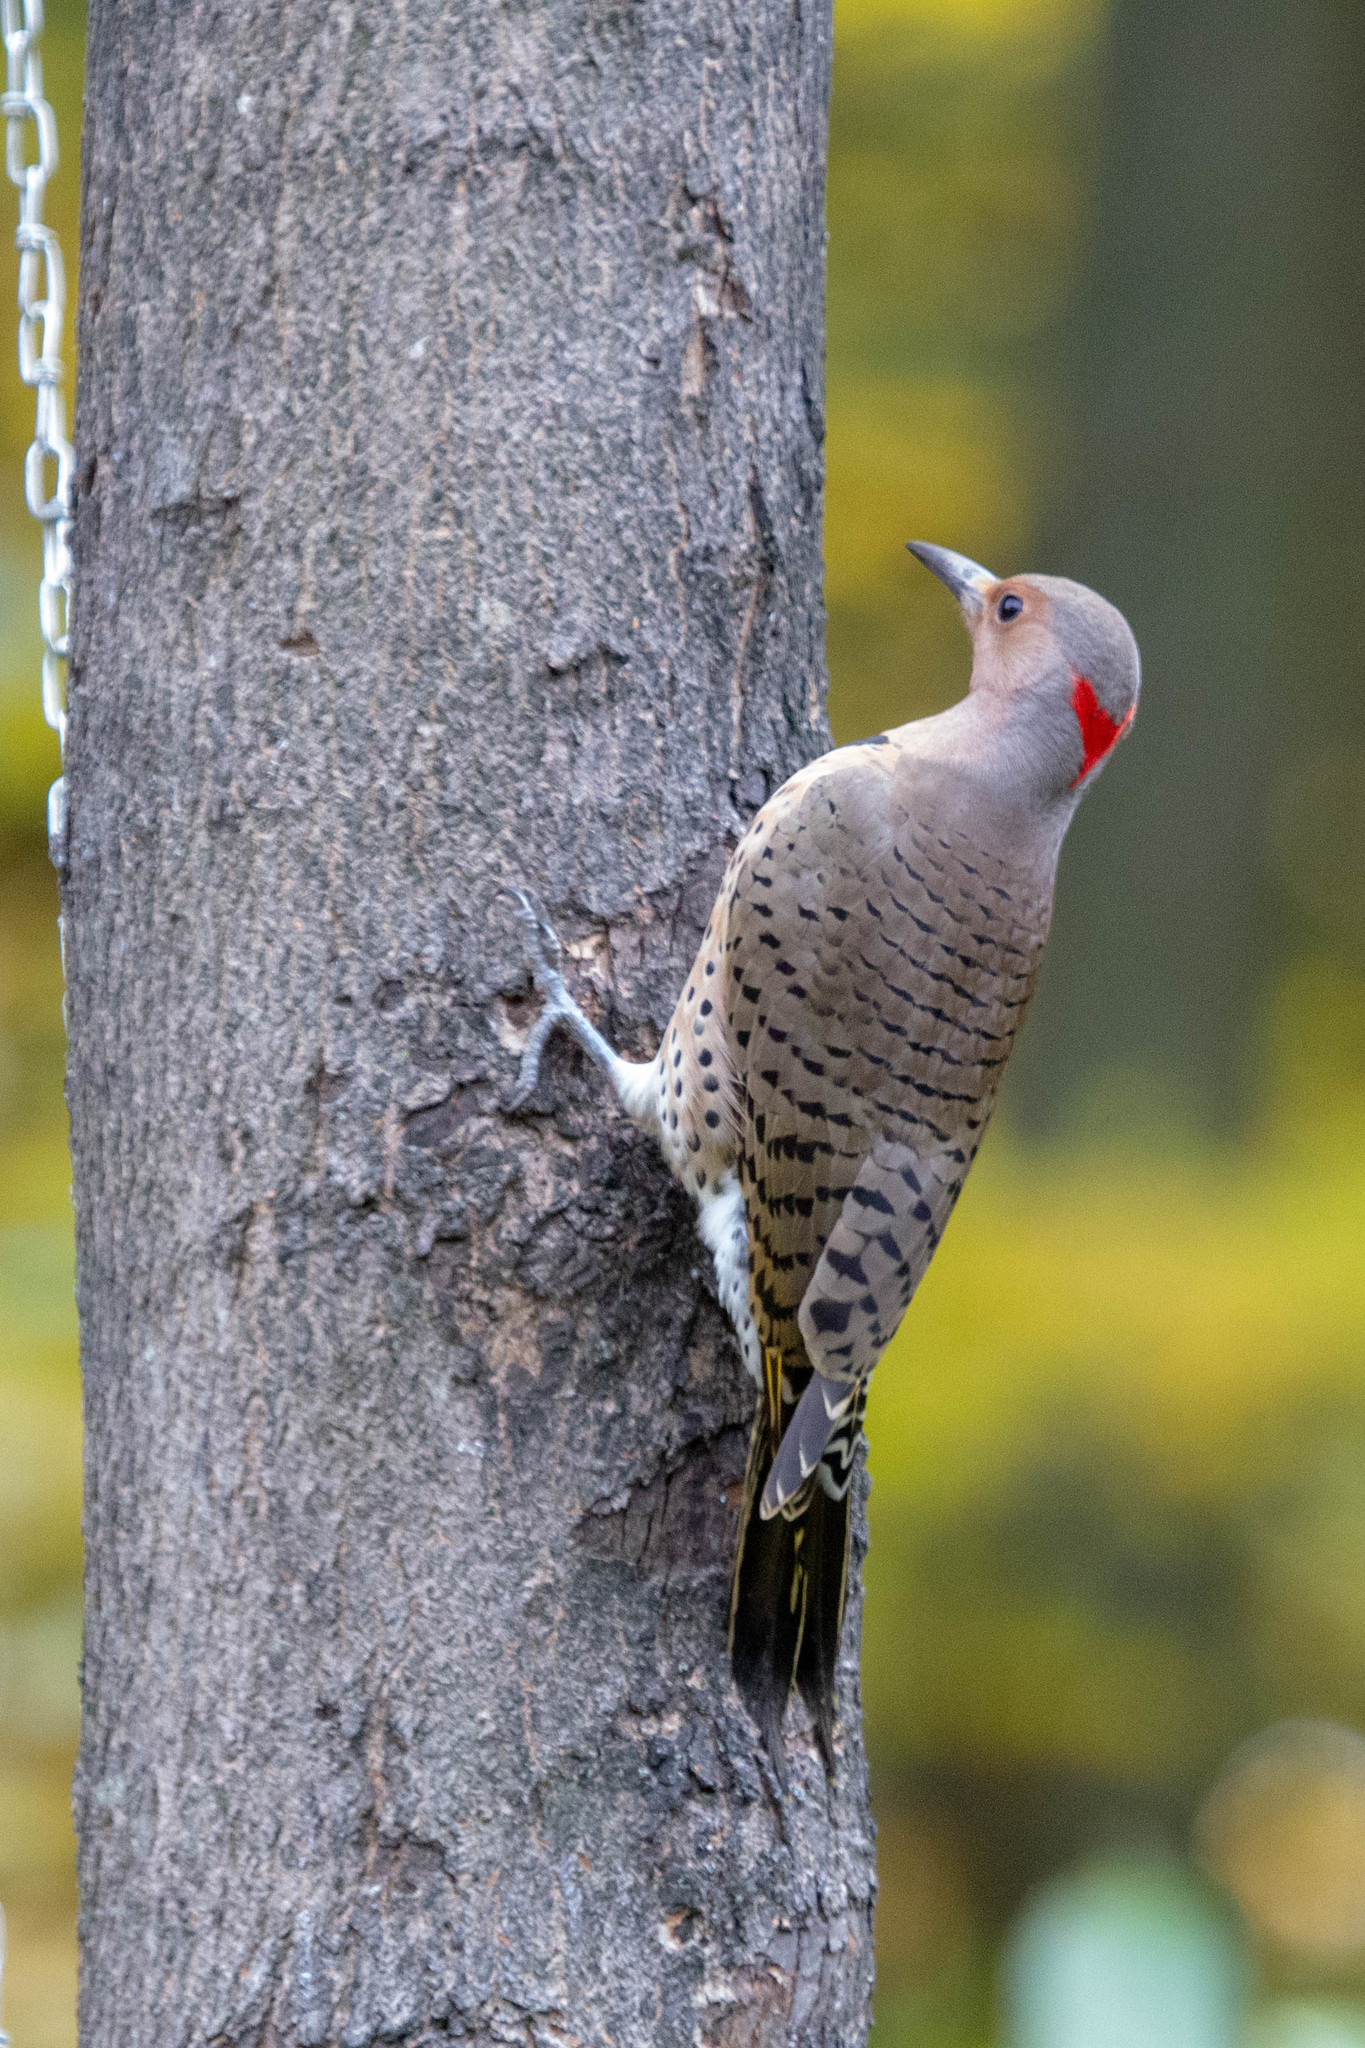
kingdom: Animalia
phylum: Chordata
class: Aves
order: Piciformes
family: Picidae
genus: Colaptes
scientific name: Colaptes auratus
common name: Northern flicker
